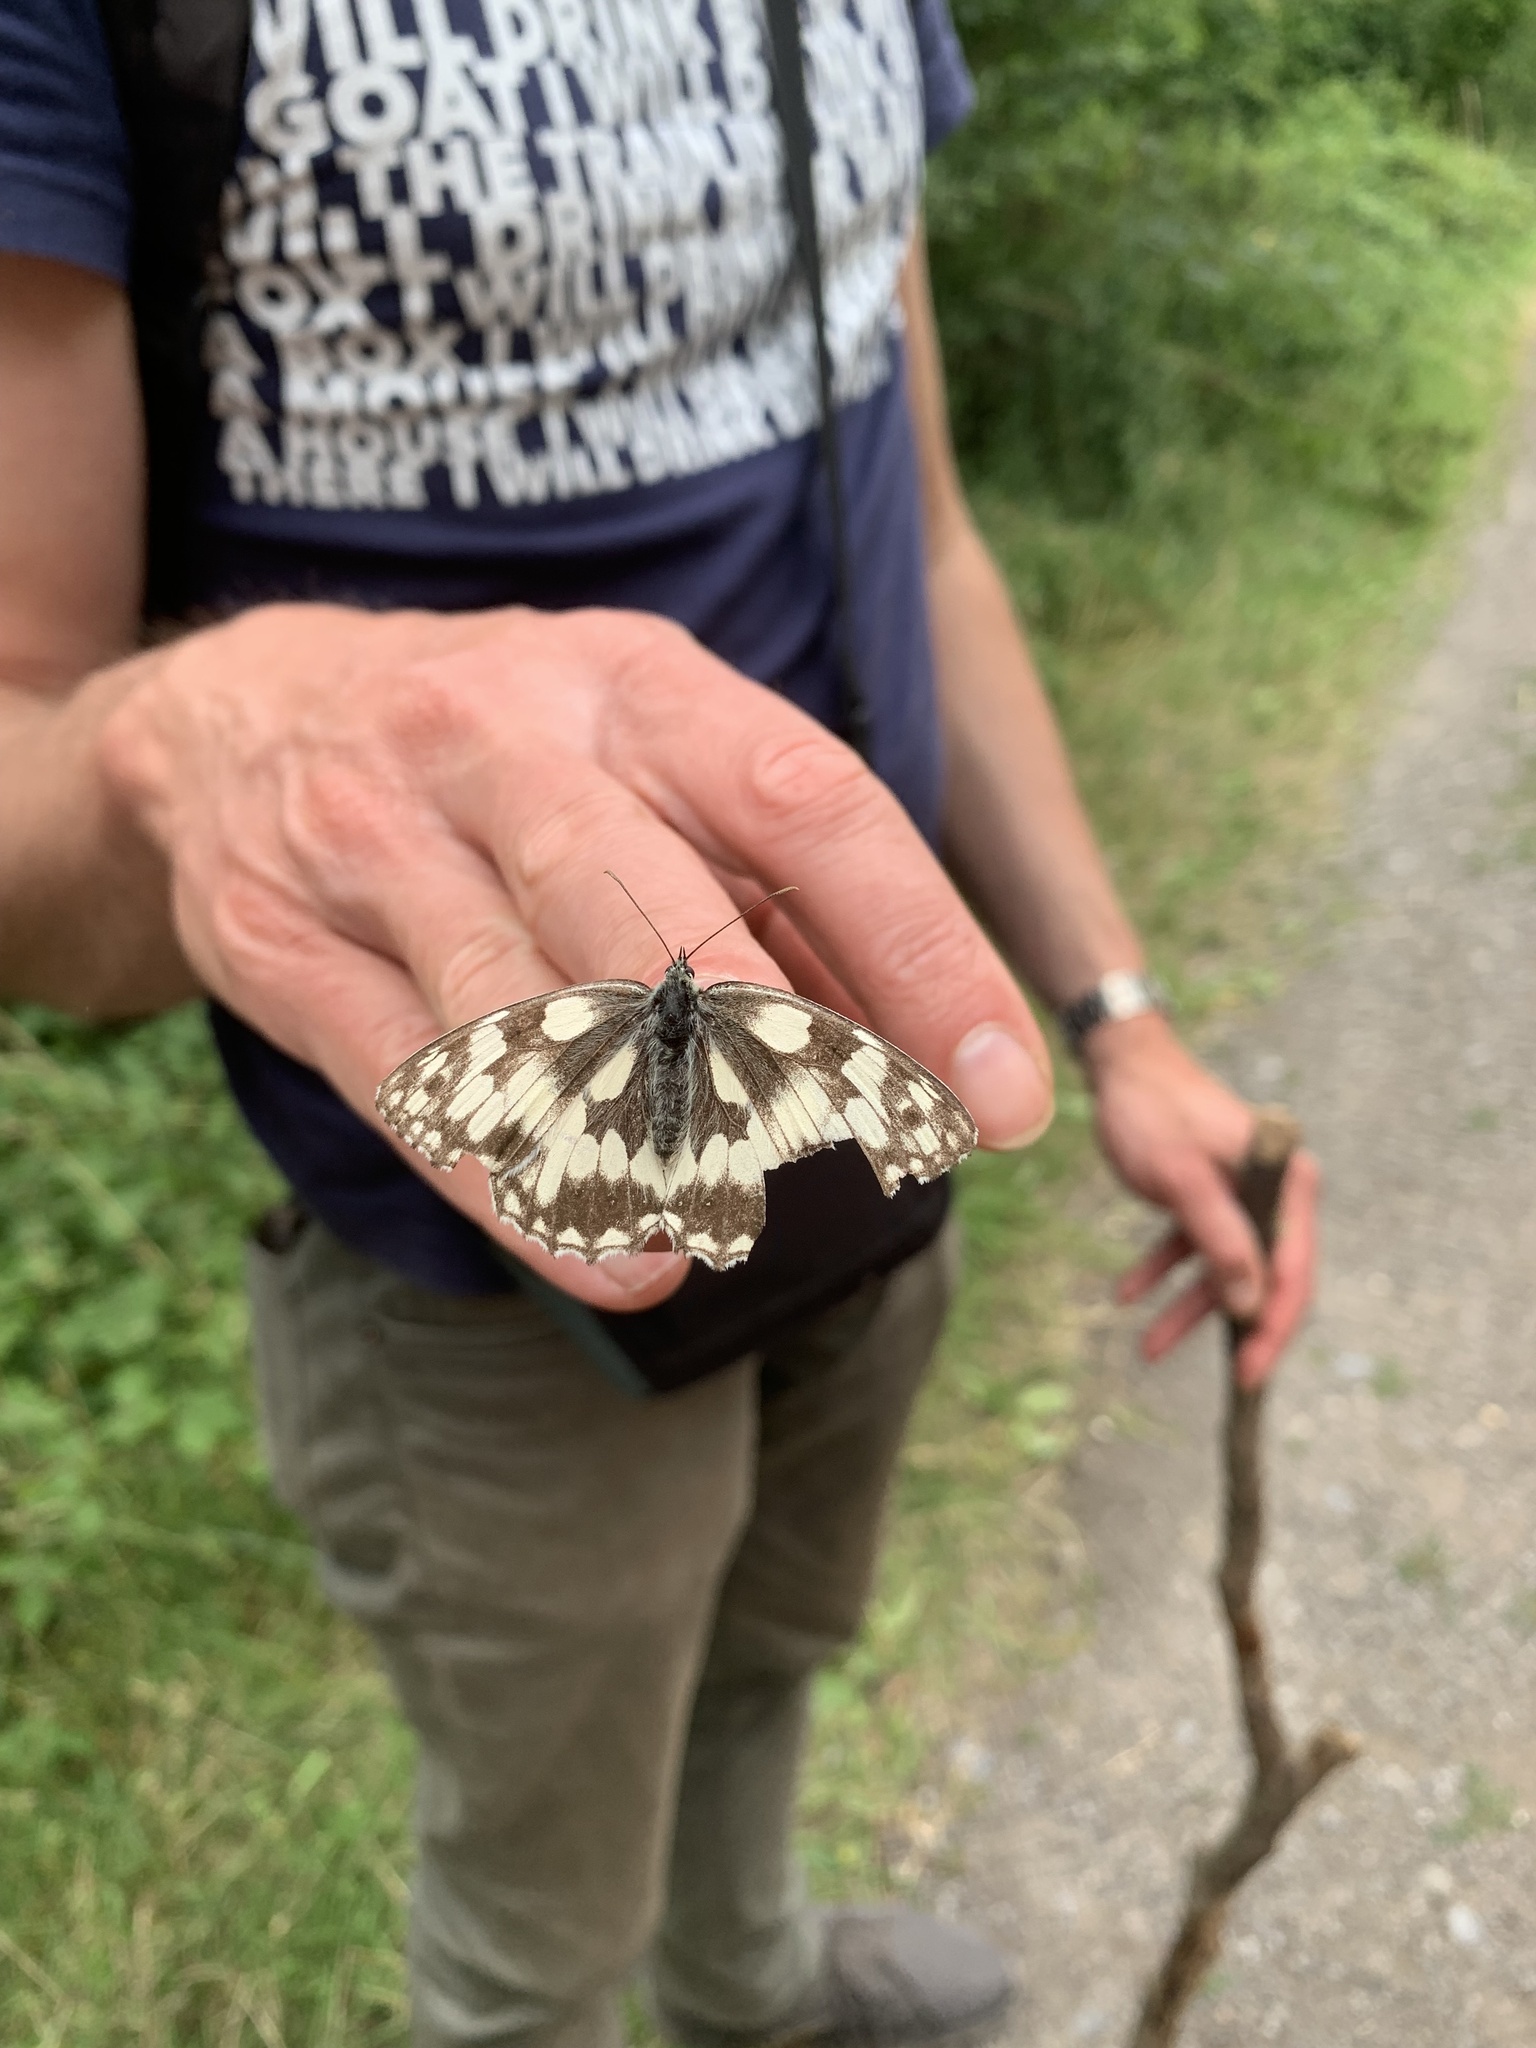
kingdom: Animalia
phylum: Arthropoda
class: Insecta
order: Lepidoptera
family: Nymphalidae
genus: Melanargia
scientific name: Melanargia galathea
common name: Marbled white
